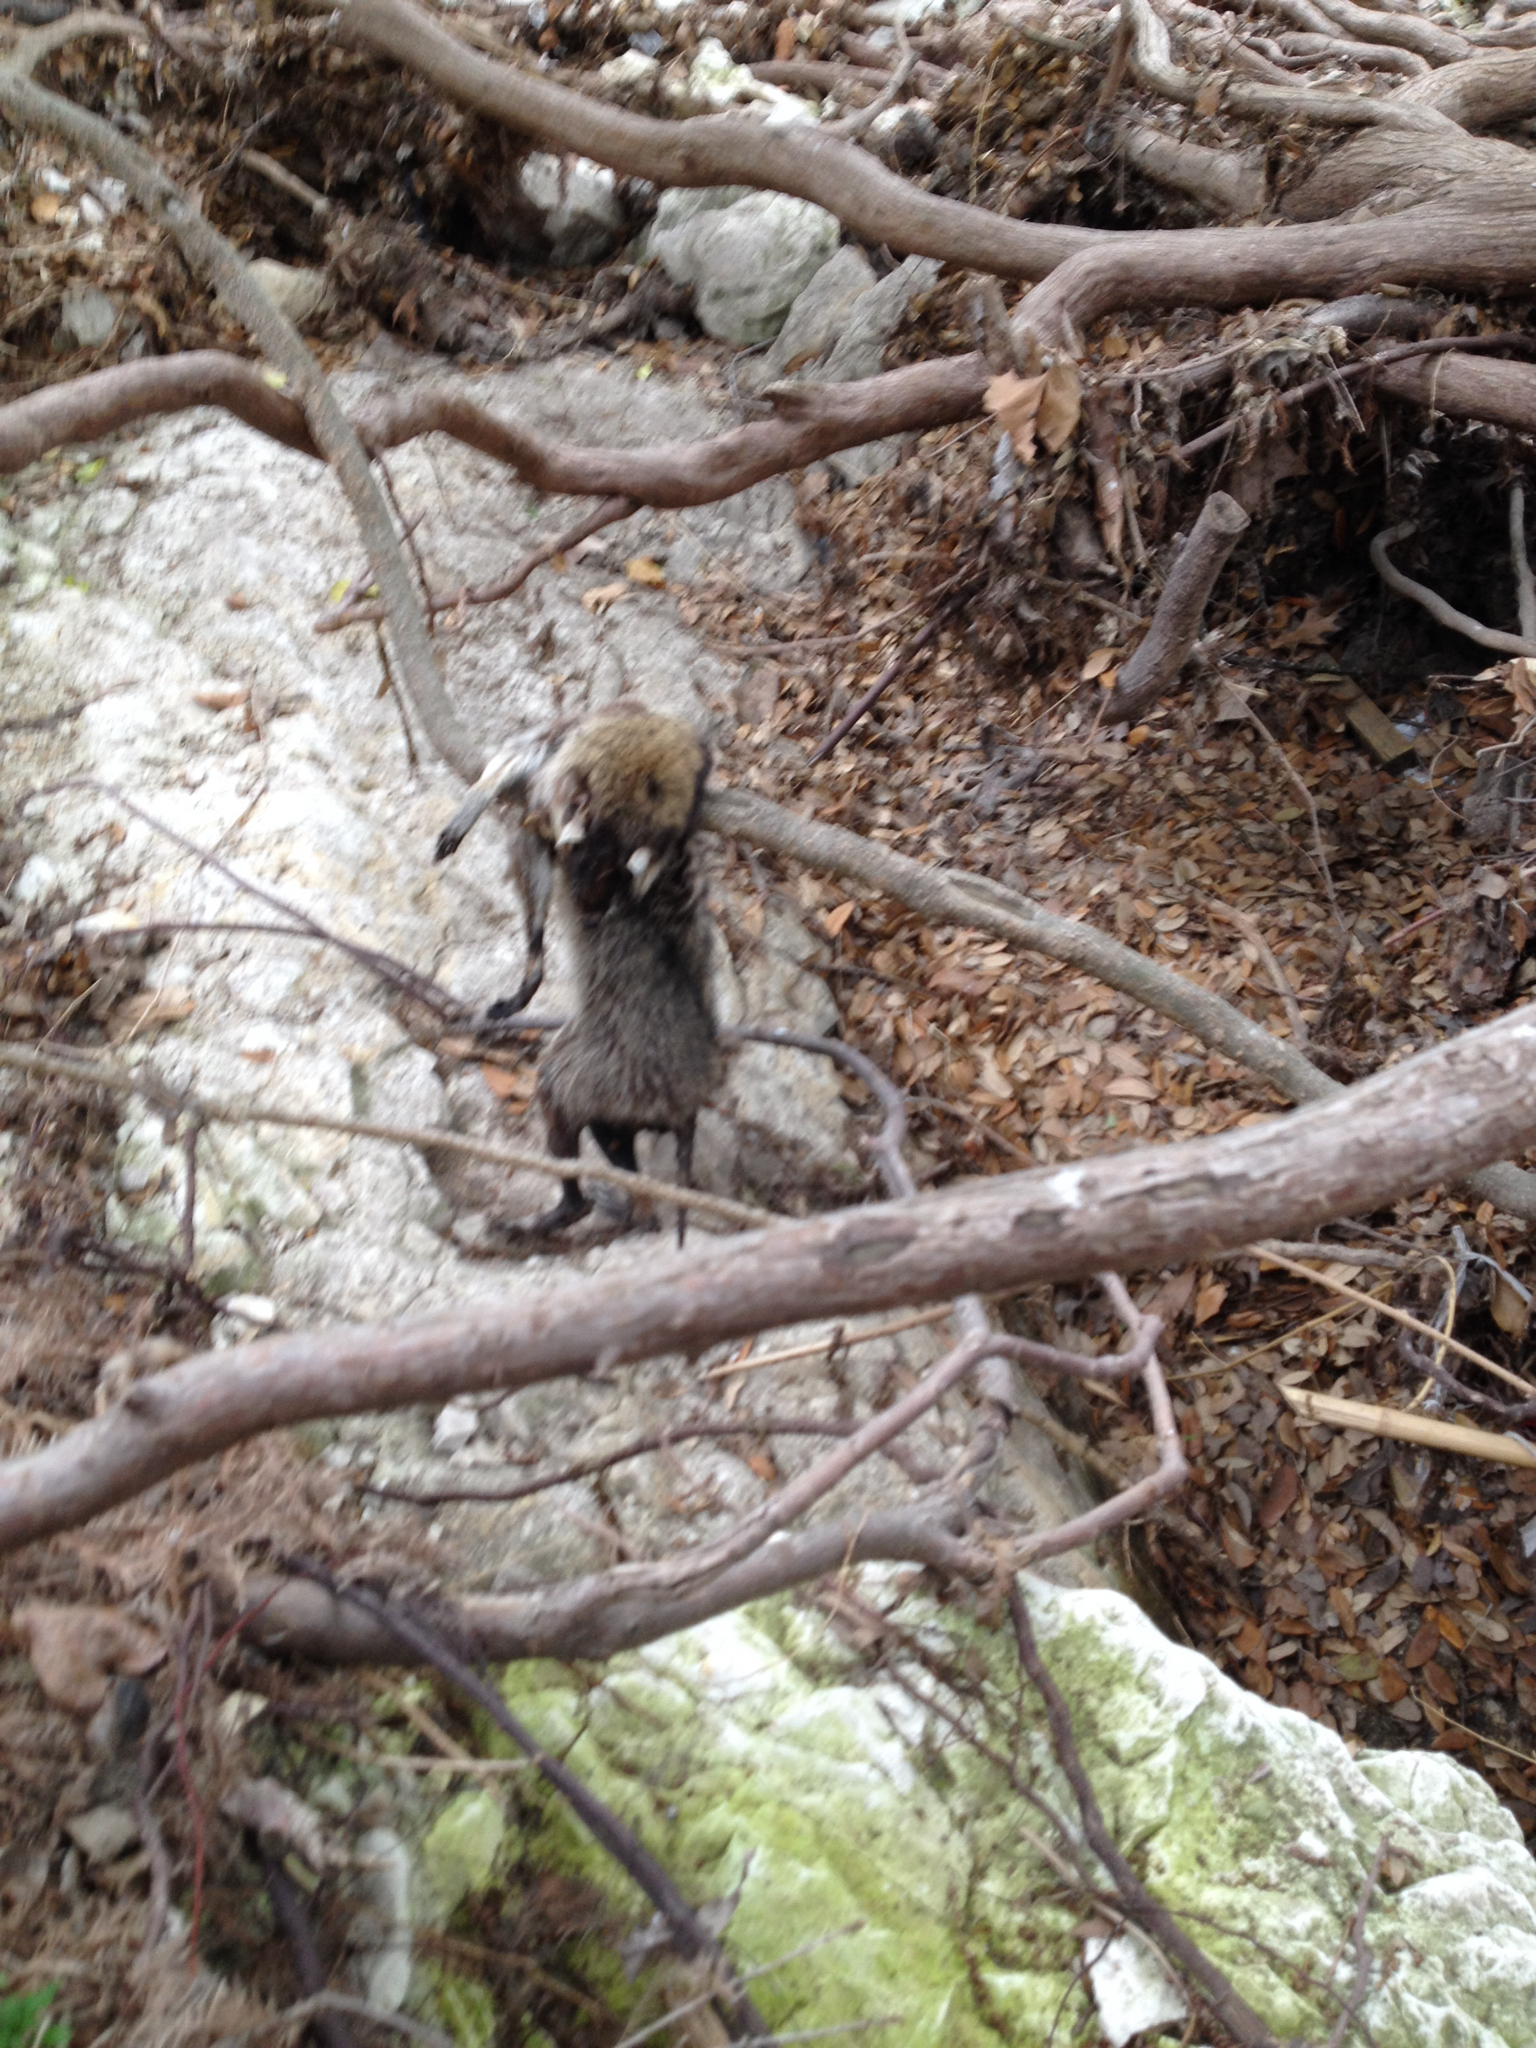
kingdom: Animalia
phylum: Chordata
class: Mammalia
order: Carnivora
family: Procyonidae
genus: Procyon
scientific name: Procyon lotor
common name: Raccoon
